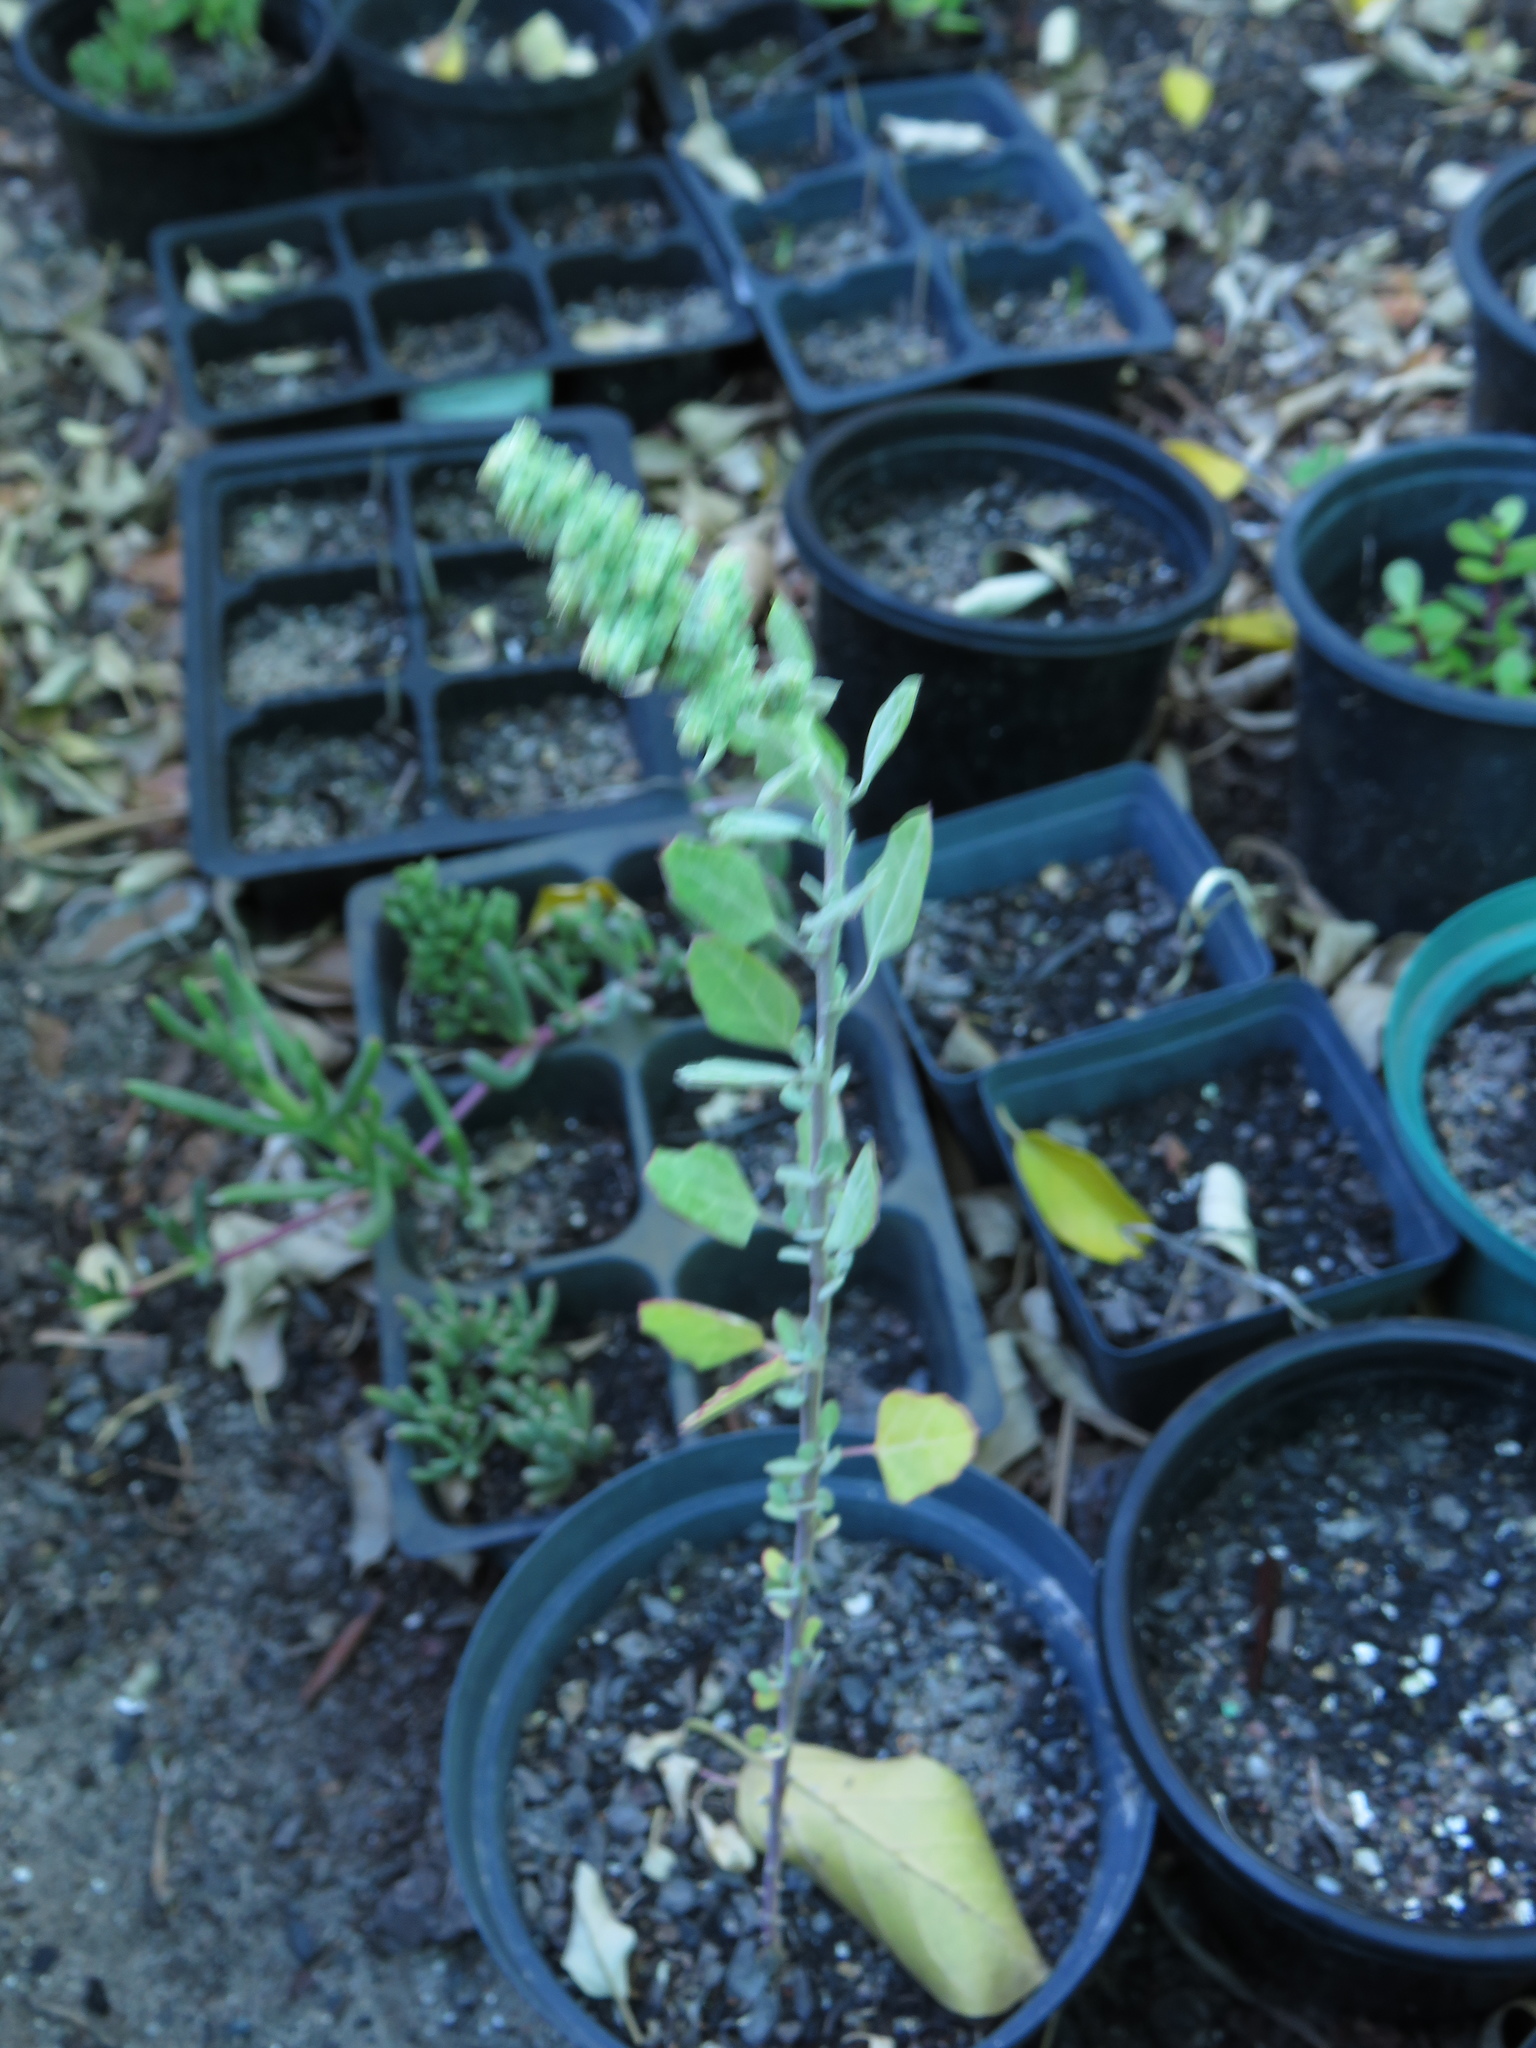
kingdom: Plantae
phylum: Tracheophyta
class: Magnoliopsida
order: Caryophyllales
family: Amaranthaceae
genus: Chenopodium
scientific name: Chenopodium album
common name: Fat-hen
